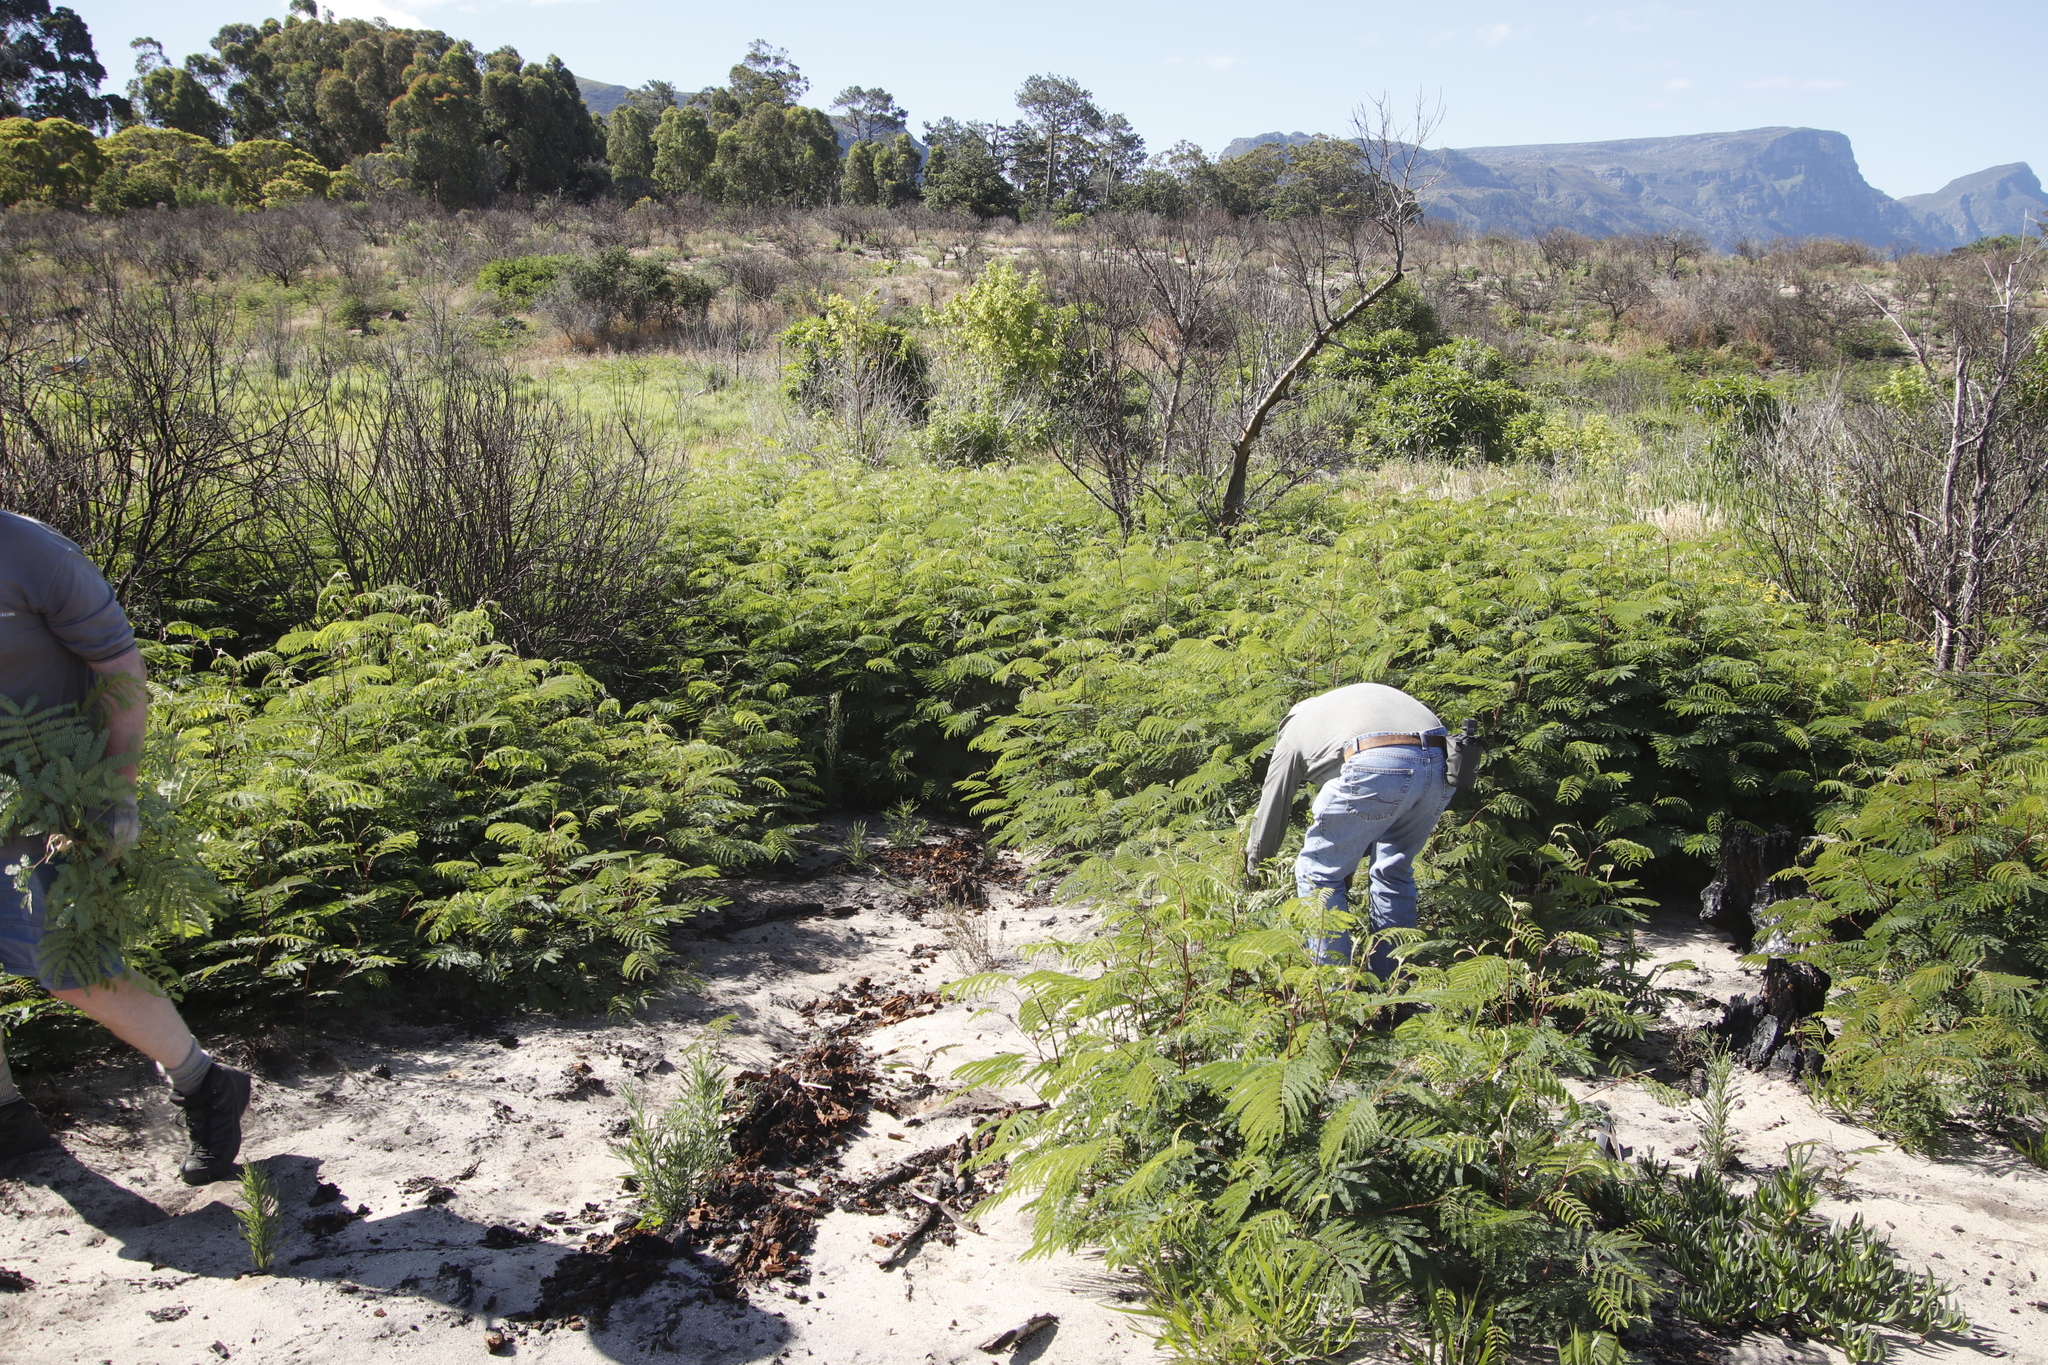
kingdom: Plantae
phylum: Tracheophyta
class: Magnoliopsida
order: Fabales
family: Fabaceae
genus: Paraserianthes
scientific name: Paraserianthes lophantha
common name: Plume albizia
